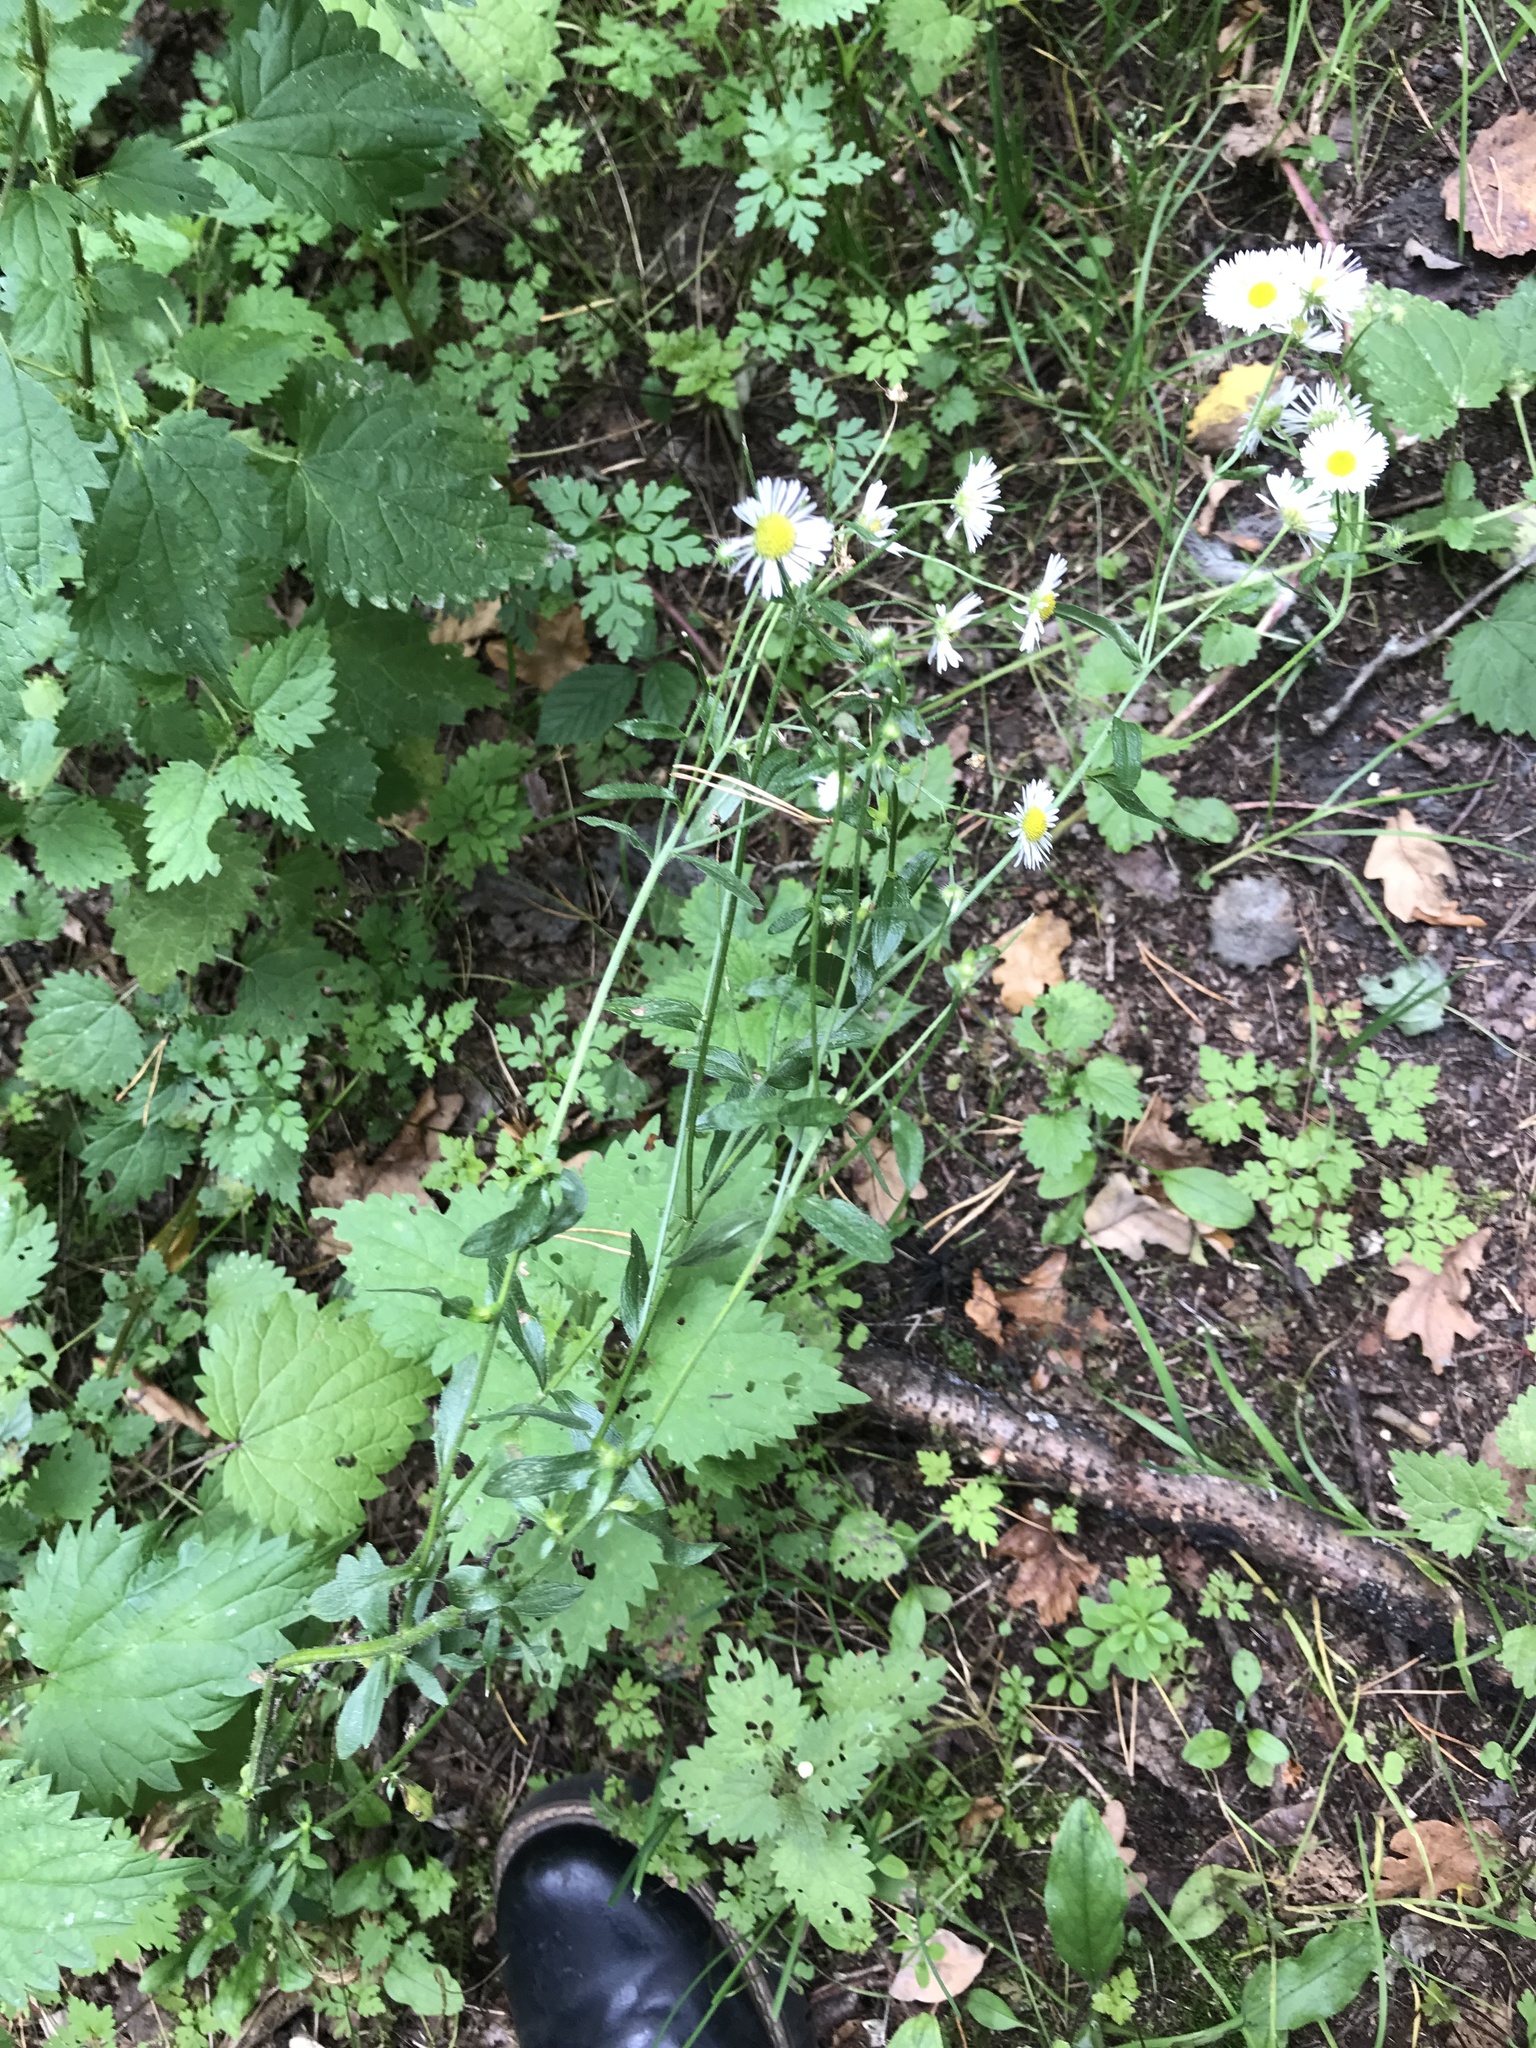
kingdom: Plantae
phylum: Tracheophyta
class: Magnoliopsida
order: Asterales
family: Asteraceae
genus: Erigeron
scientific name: Erigeron annuus
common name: Tall fleabane
